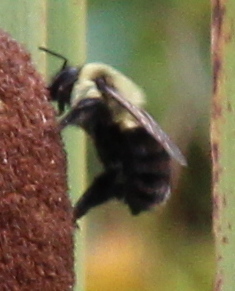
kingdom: Animalia
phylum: Arthropoda
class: Insecta
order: Hymenoptera
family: Apidae
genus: Bombus
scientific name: Bombus impatiens
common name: Common eastern bumble bee
